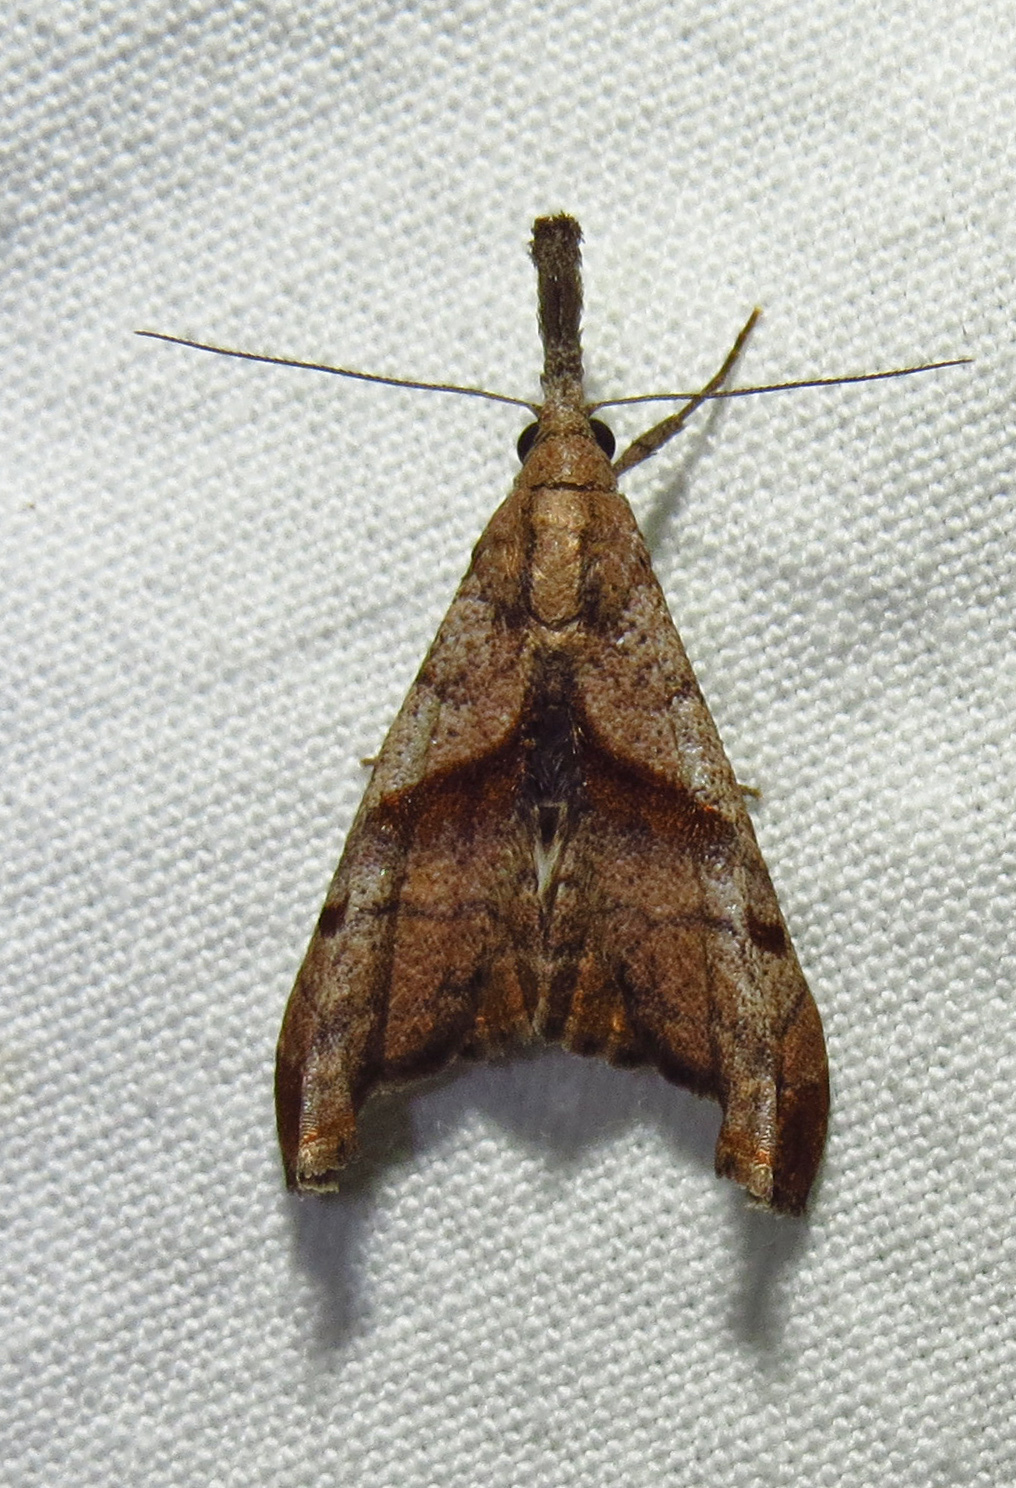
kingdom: Animalia
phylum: Arthropoda
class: Insecta
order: Lepidoptera
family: Erebidae
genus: Palthis
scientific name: Palthis angulalis
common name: Dark-spotted palthis moth
